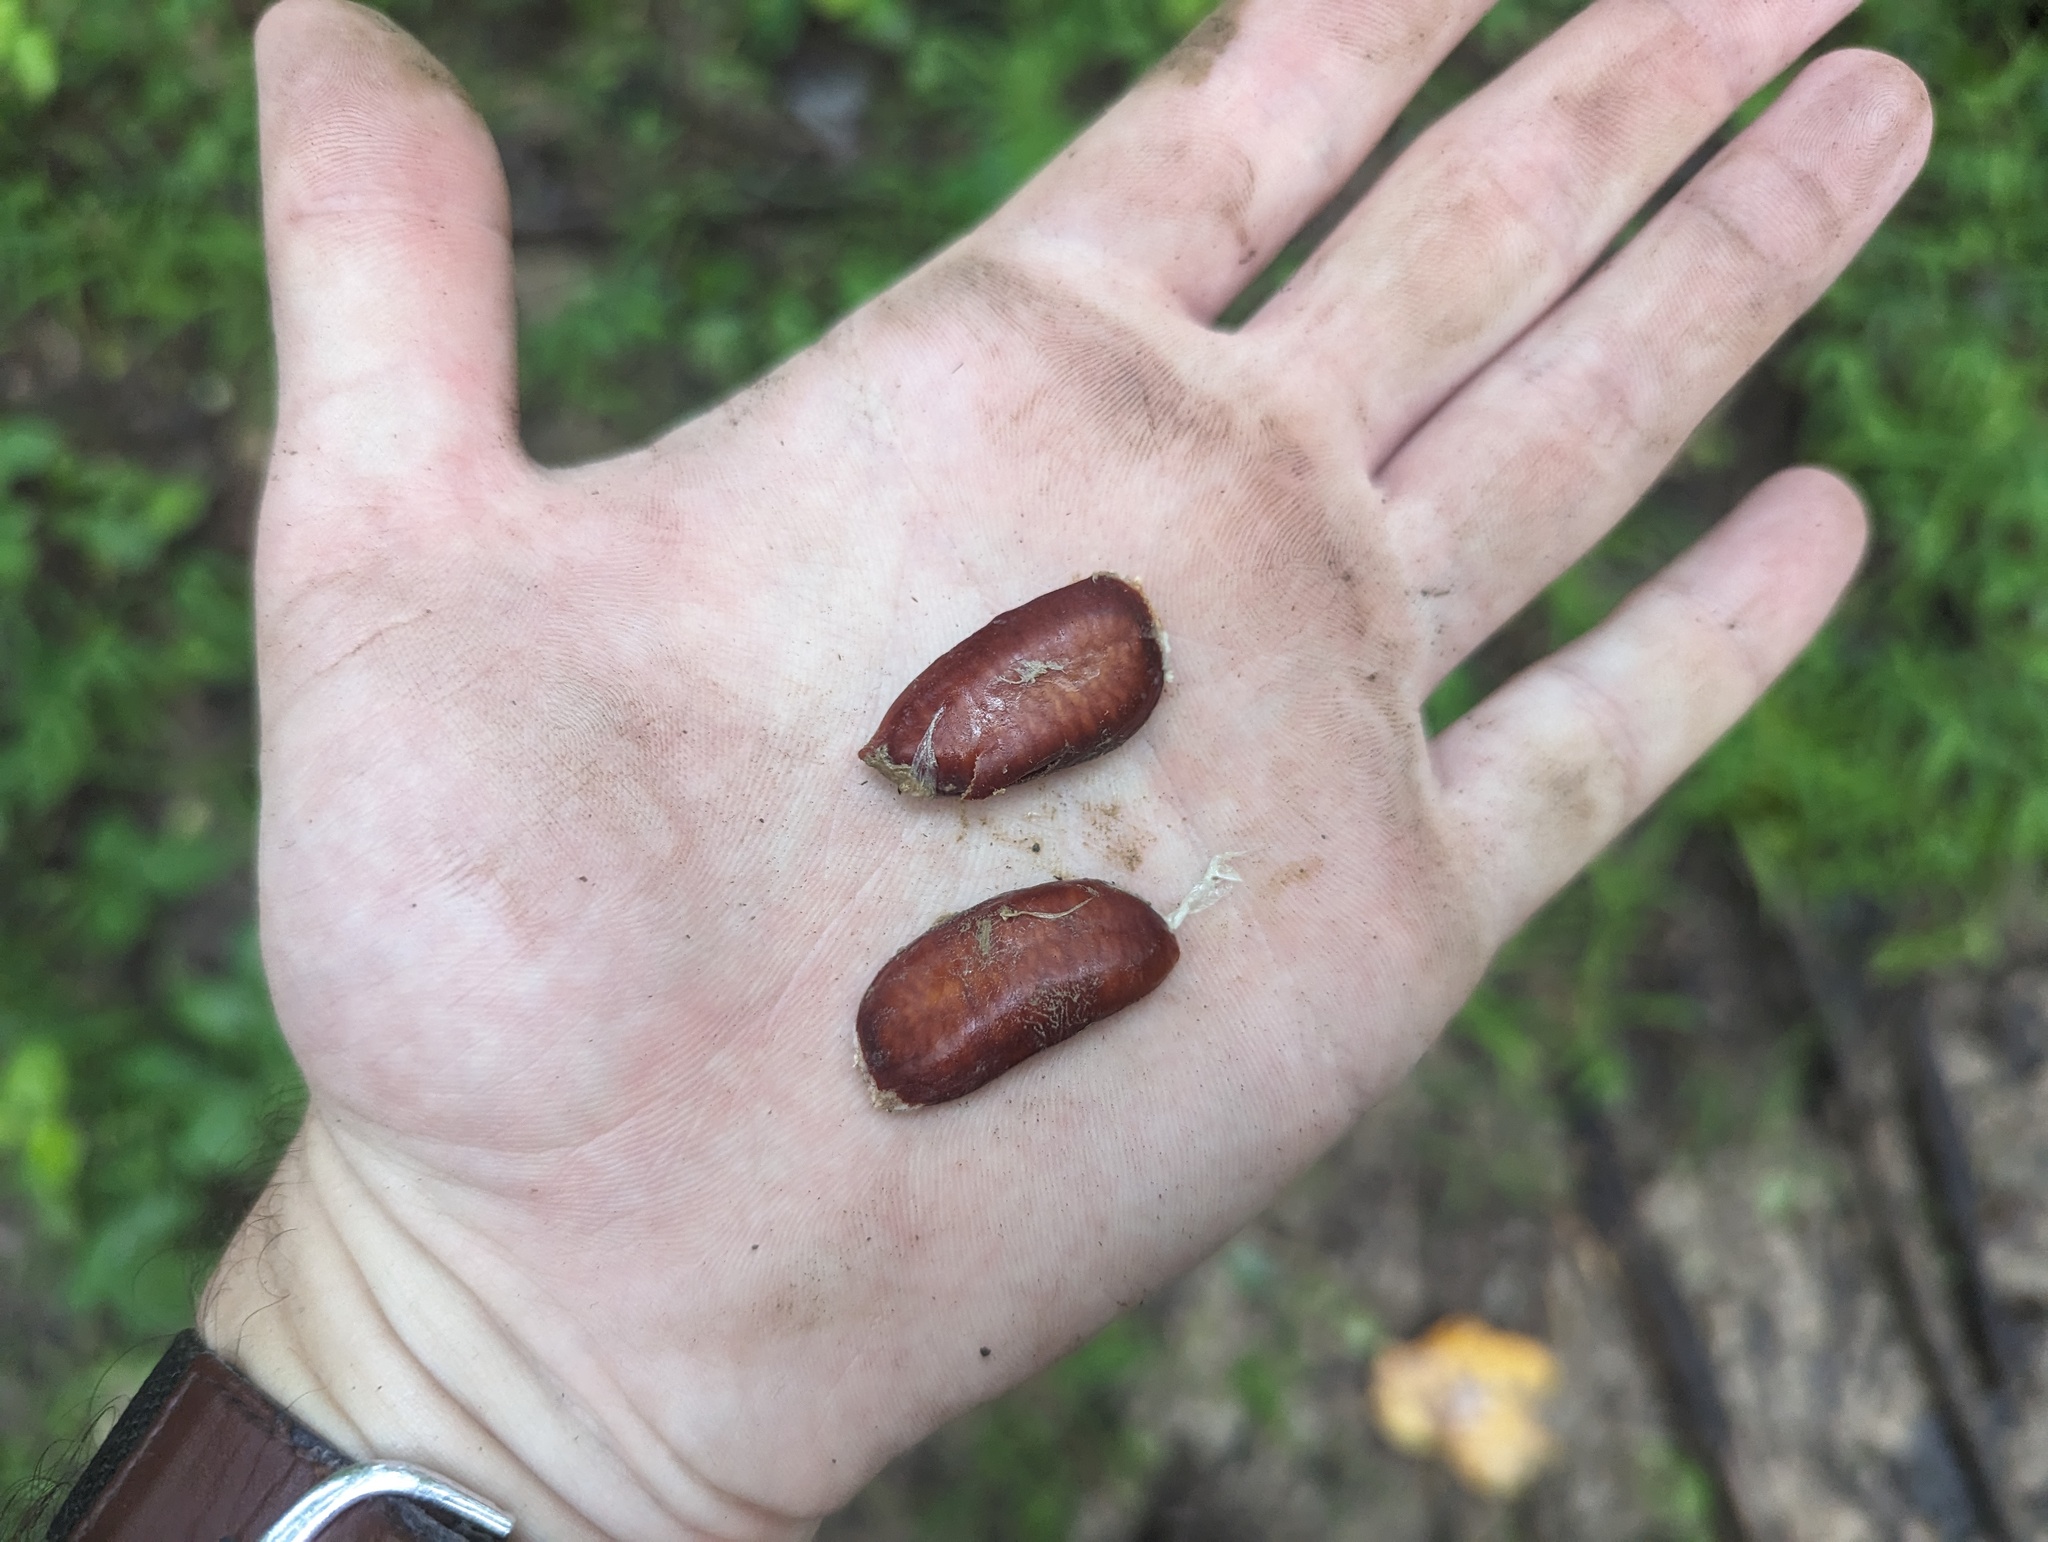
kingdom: Plantae
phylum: Tracheophyta
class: Magnoliopsida
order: Magnoliales
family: Annonaceae
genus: Asimina
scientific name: Asimina triloba
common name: Dog-banana
